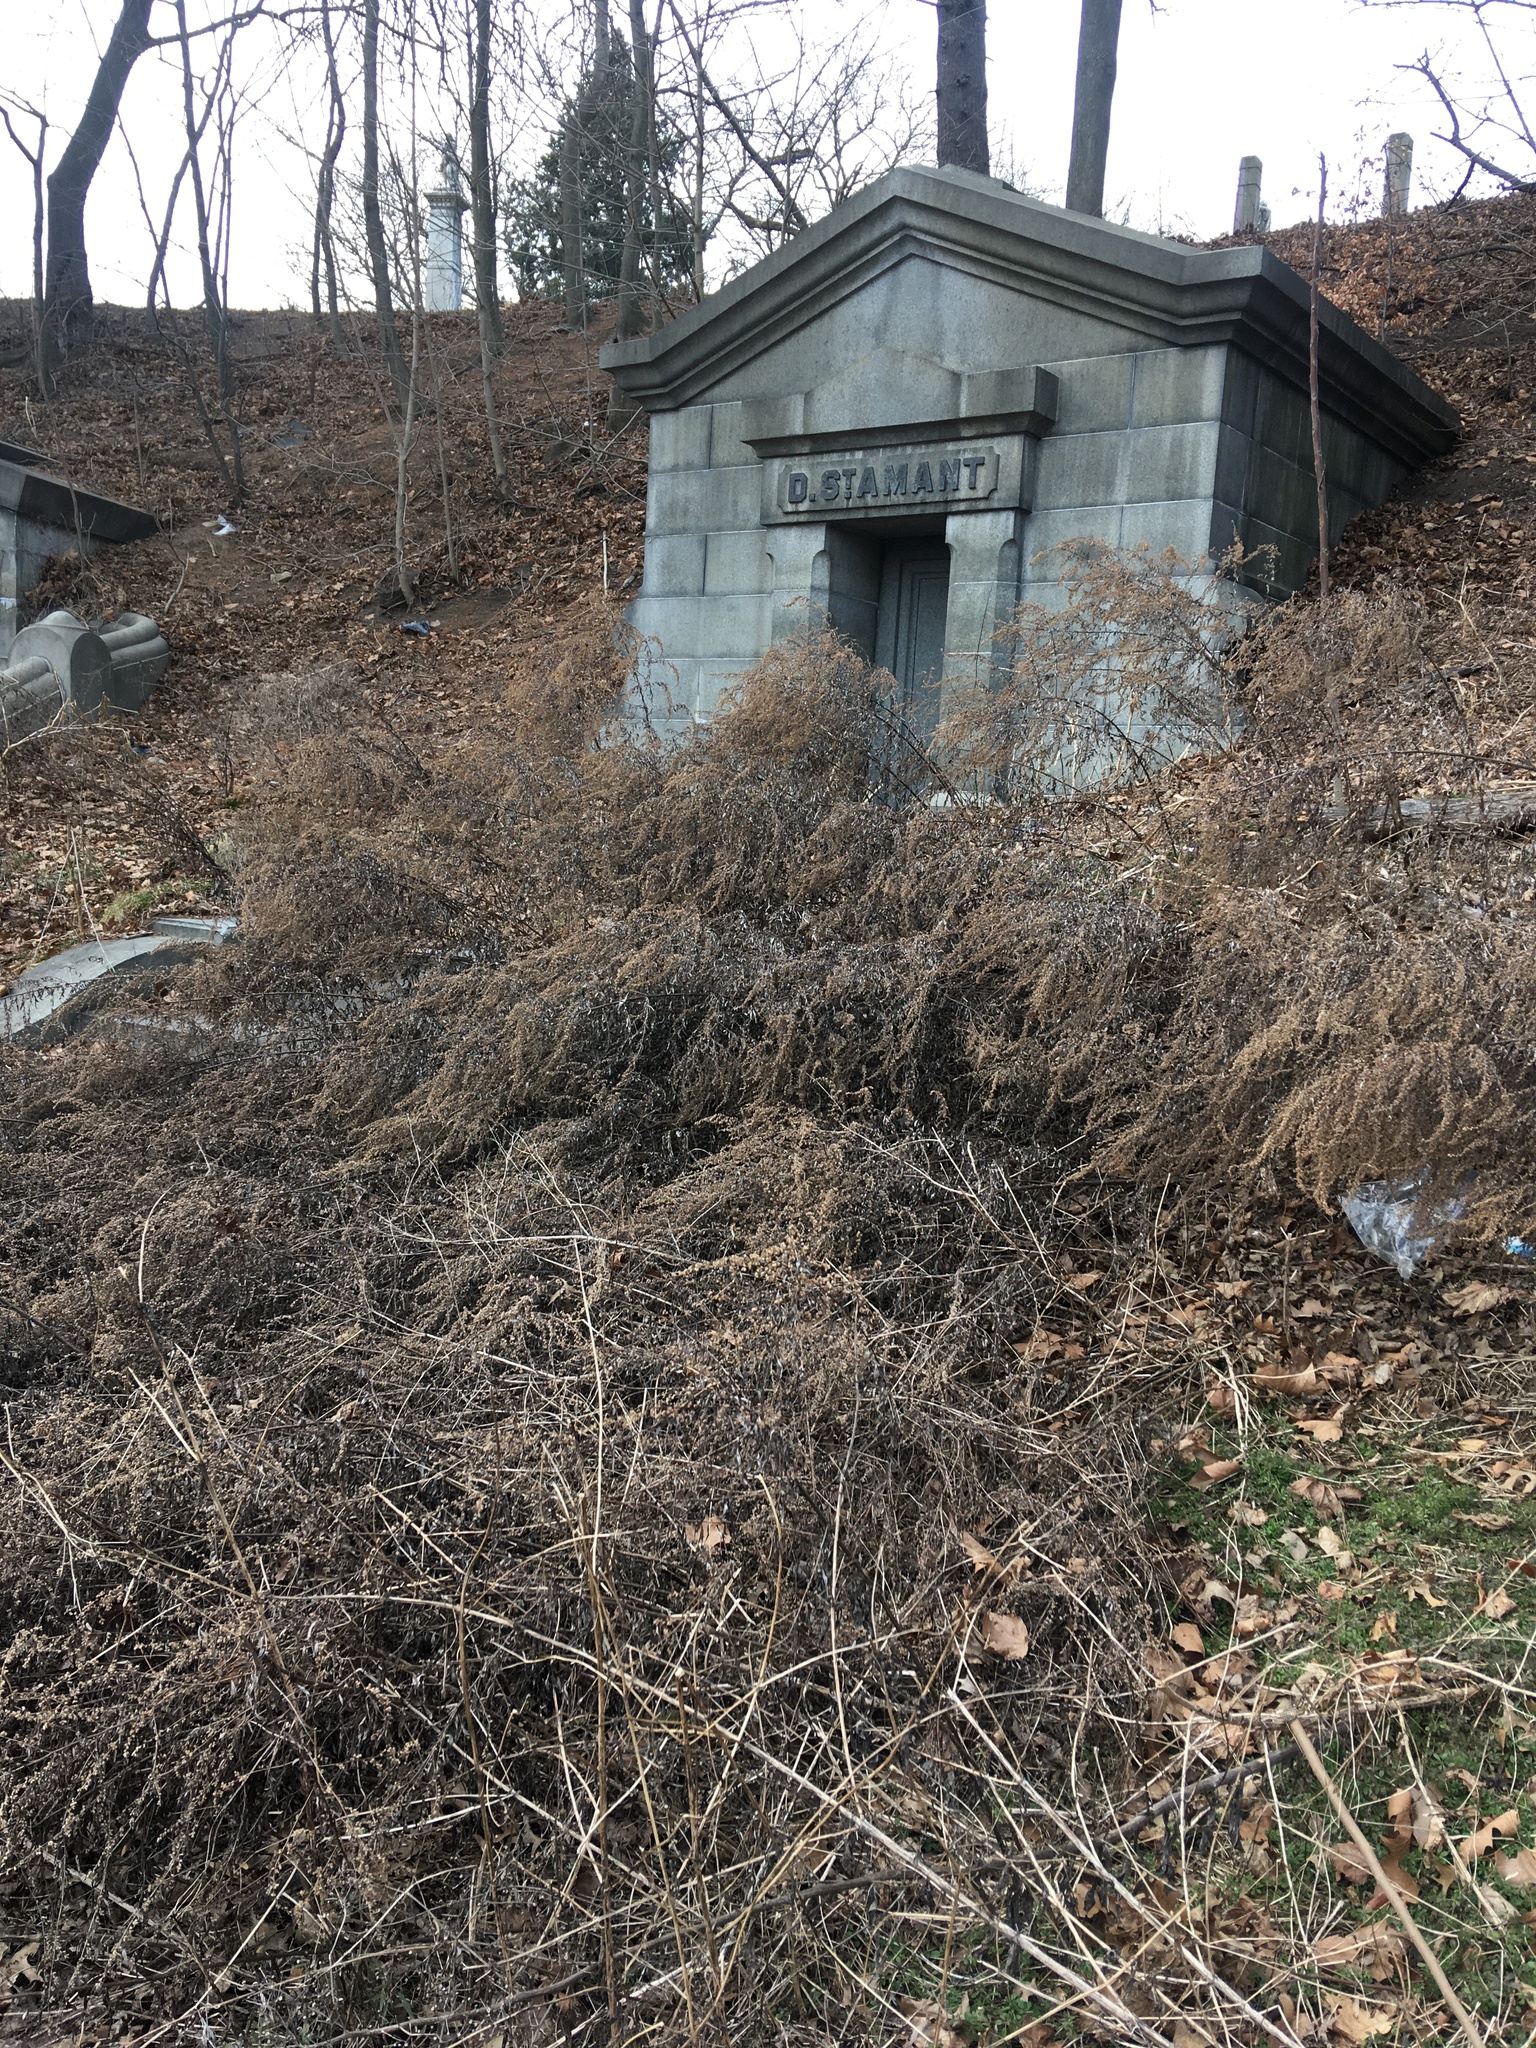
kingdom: Plantae
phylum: Tracheophyta
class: Magnoliopsida
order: Asterales
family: Asteraceae
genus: Artemisia
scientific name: Artemisia vulgaris
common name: Mugwort
